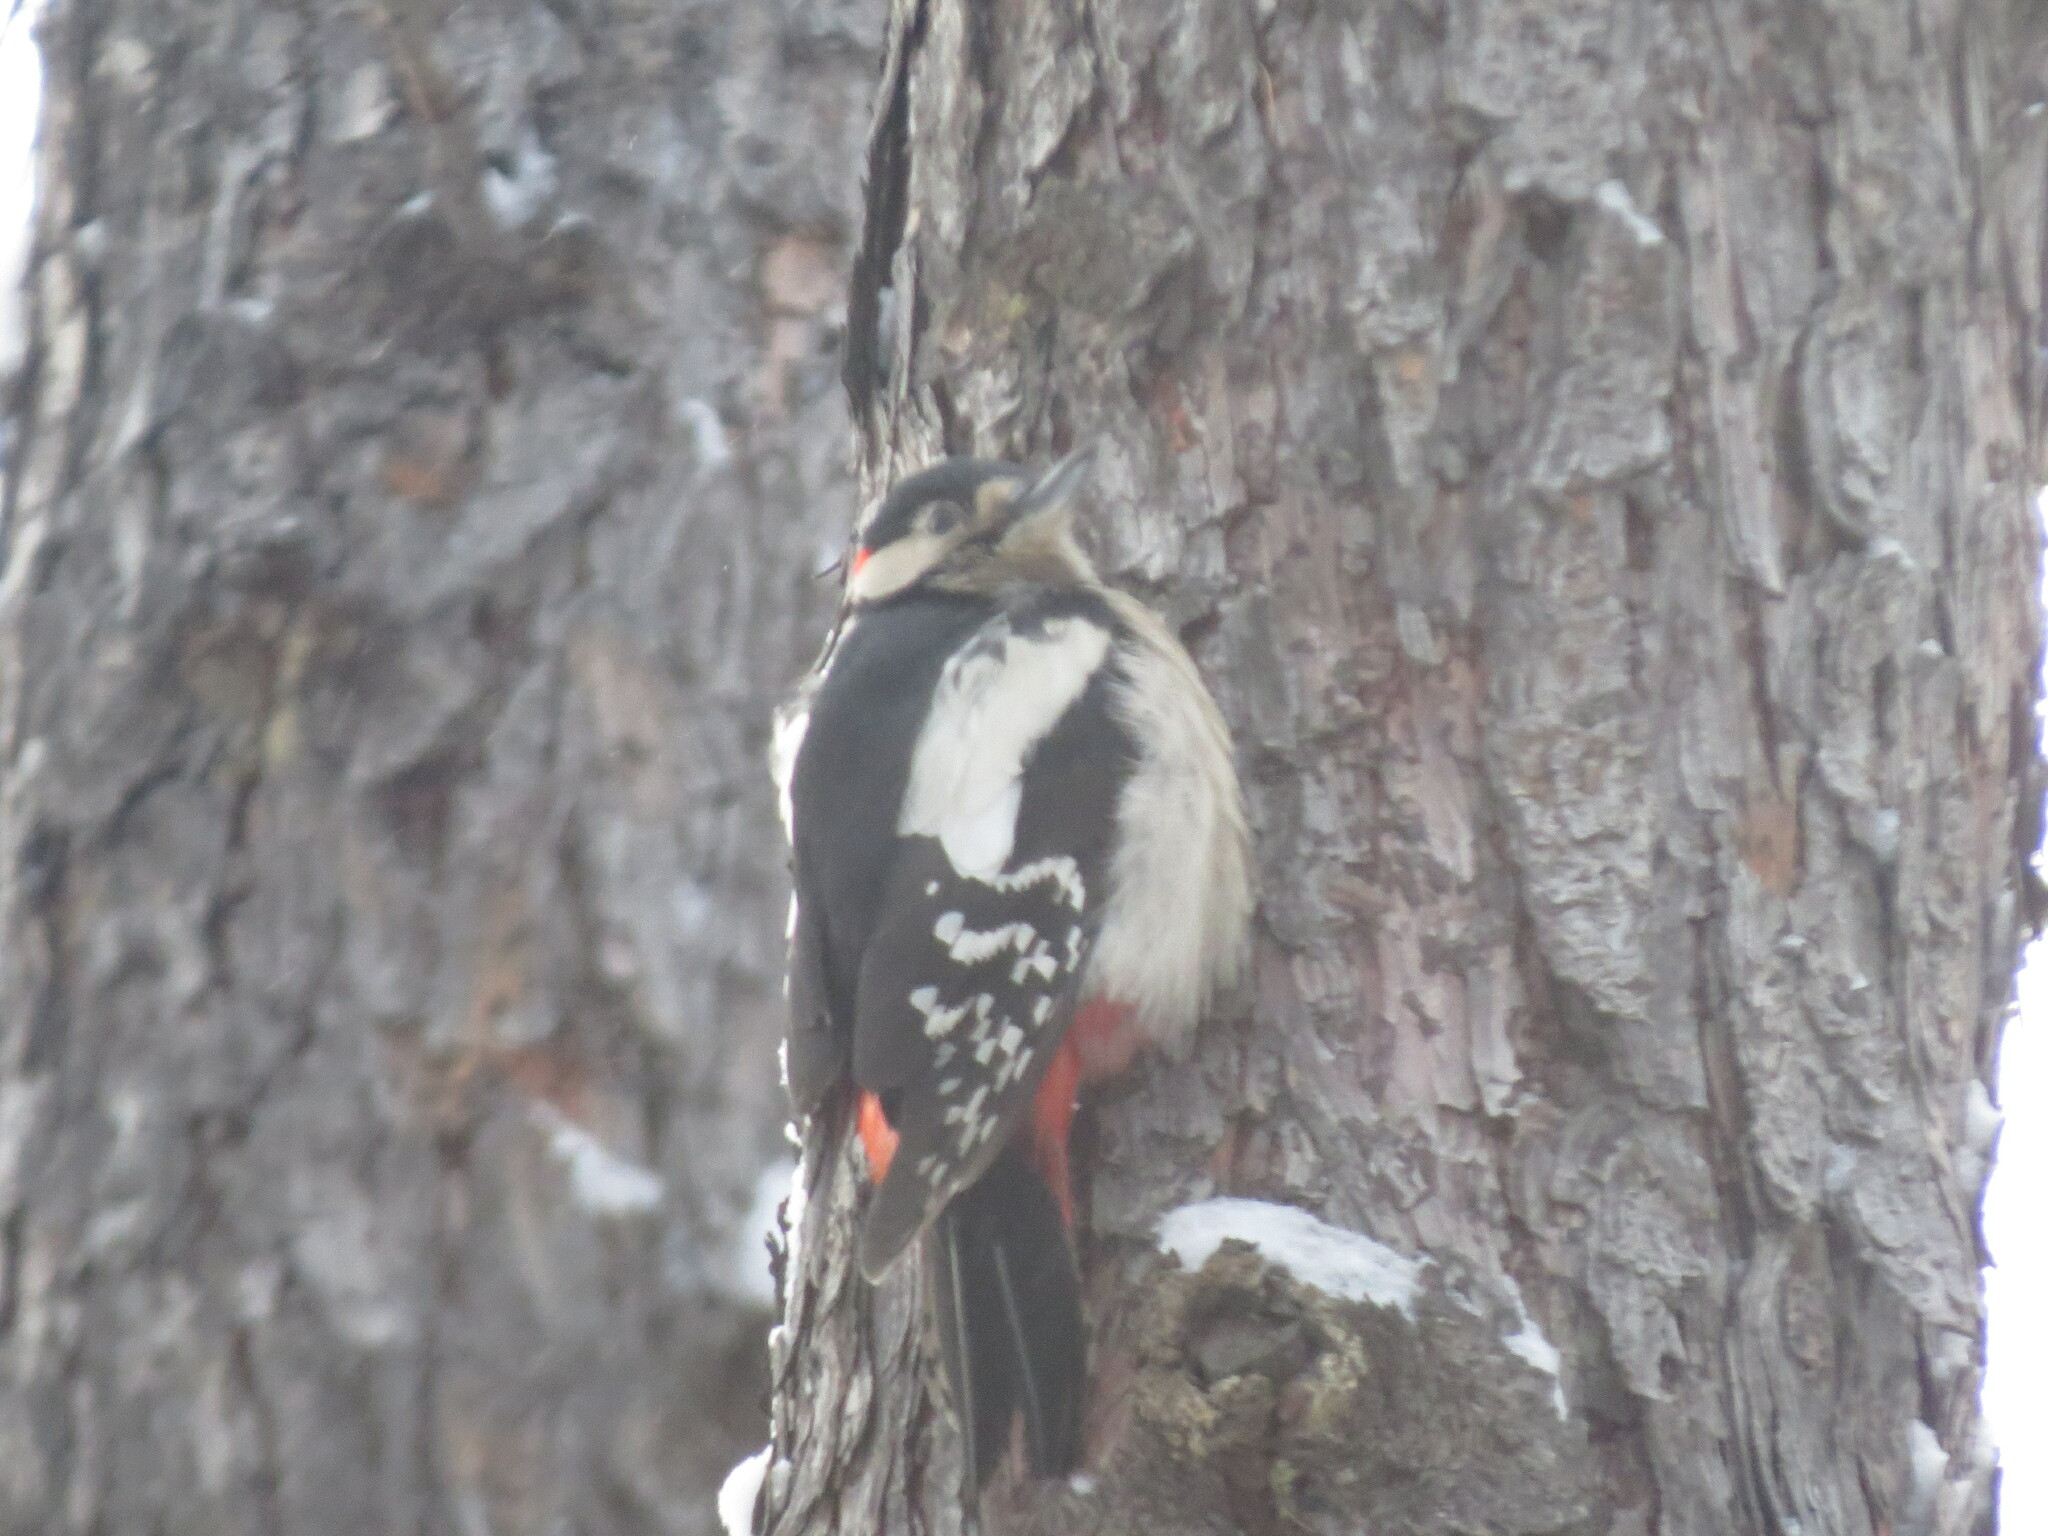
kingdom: Animalia
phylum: Chordata
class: Aves
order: Piciformes
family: Picidae
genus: Dendrocopos
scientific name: Dendrocopos major
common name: Great spotted woodpecker
